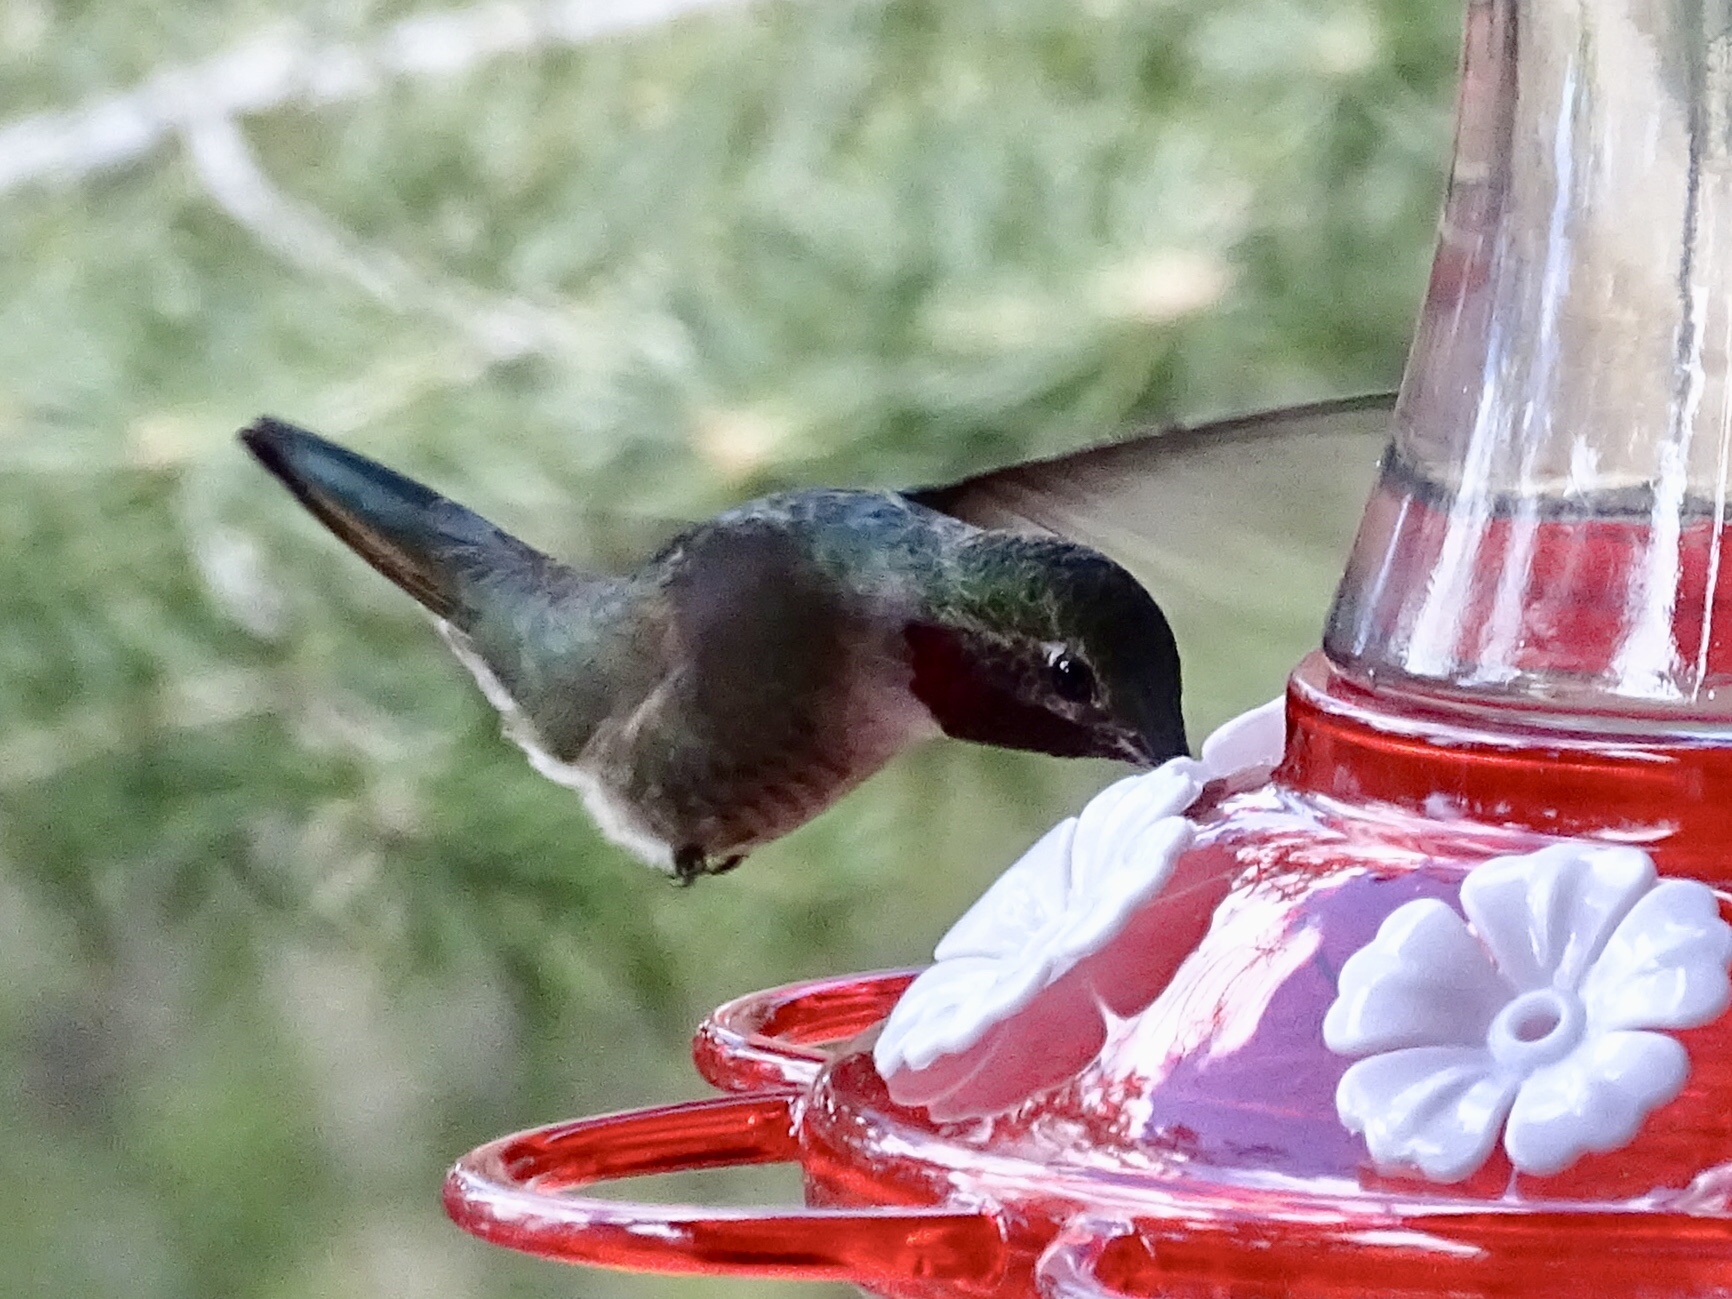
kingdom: Animalia
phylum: Chordata
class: Aves
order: Apodiformes
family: Trochilidae
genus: Selasphorus
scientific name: Selasphorus platycercus
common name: Broad-tailed hummingbird
